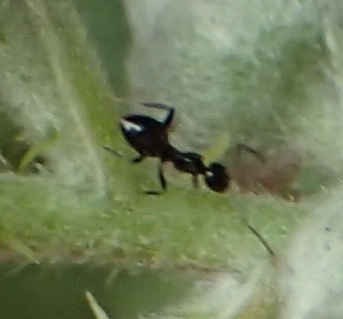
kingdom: Animalia
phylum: Arthropoda
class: Insecta
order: Hymenoptera
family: Formicidae
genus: Lepisiota
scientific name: Lepisiota capensis
